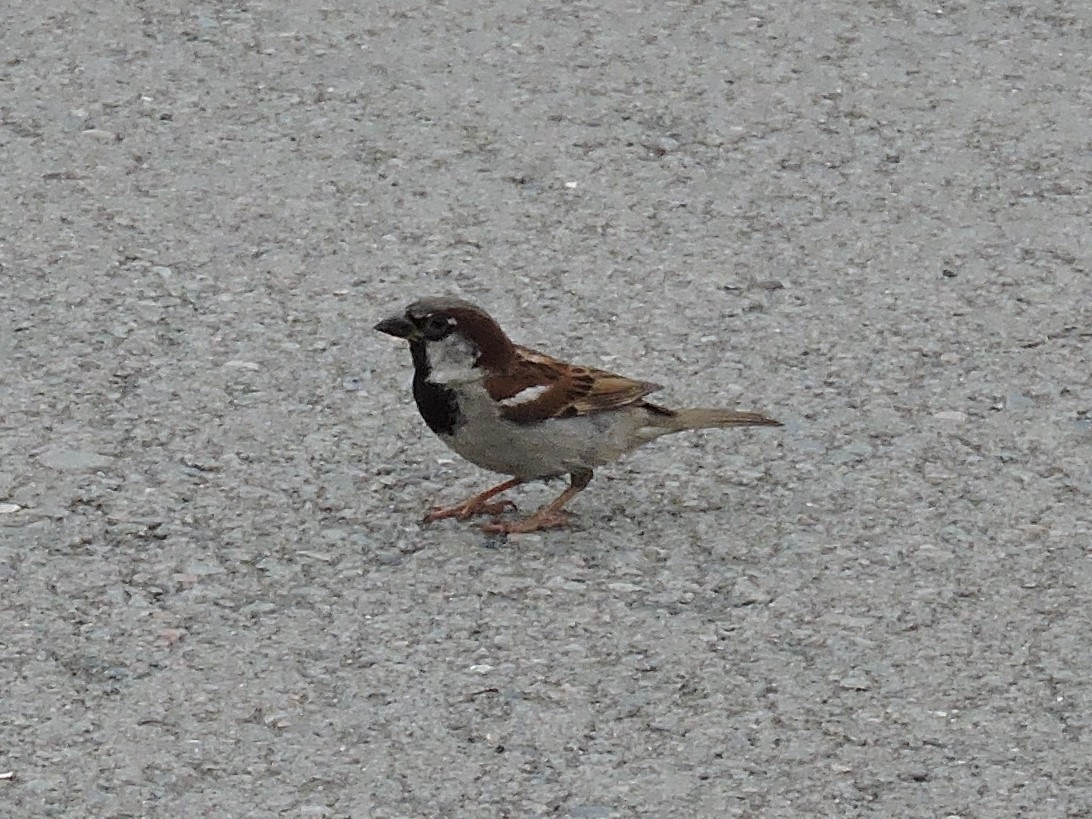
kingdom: Animalia
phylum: Chordata
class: Aves
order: Passeriformes
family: Passeridae
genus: Passer
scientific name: Passer domesticus
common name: House sparrow
